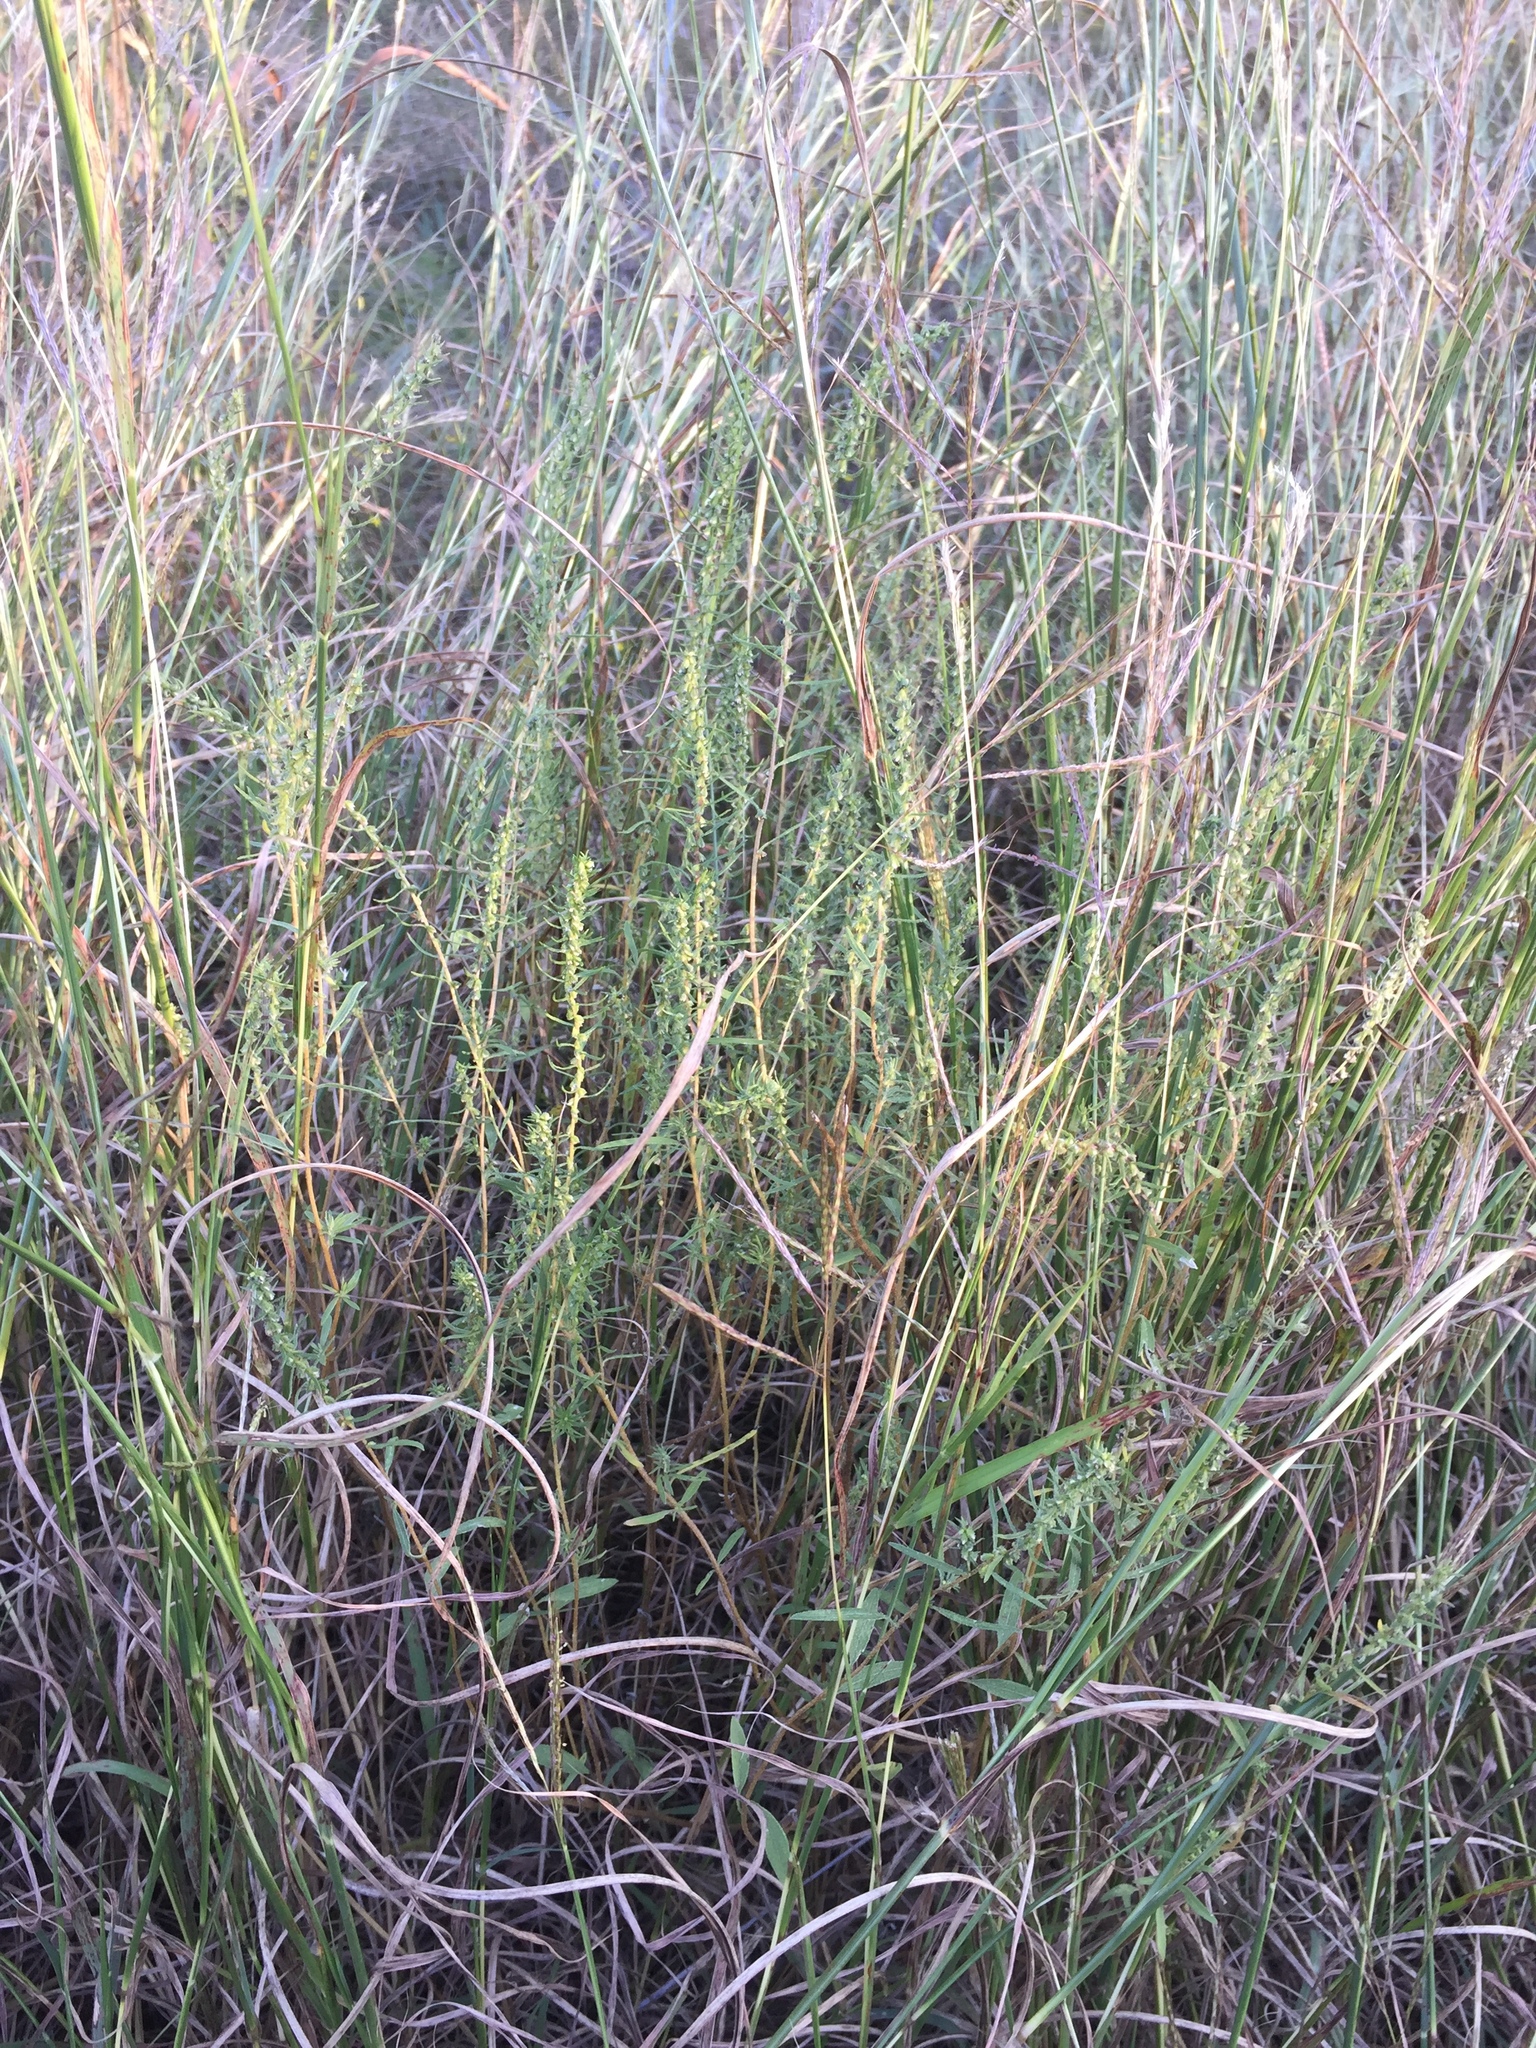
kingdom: Plantae
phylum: Tracheophyta
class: Magnoliopsida
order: Asterales
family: Asteraceae
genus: Iva
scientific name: Iva asperifolia
